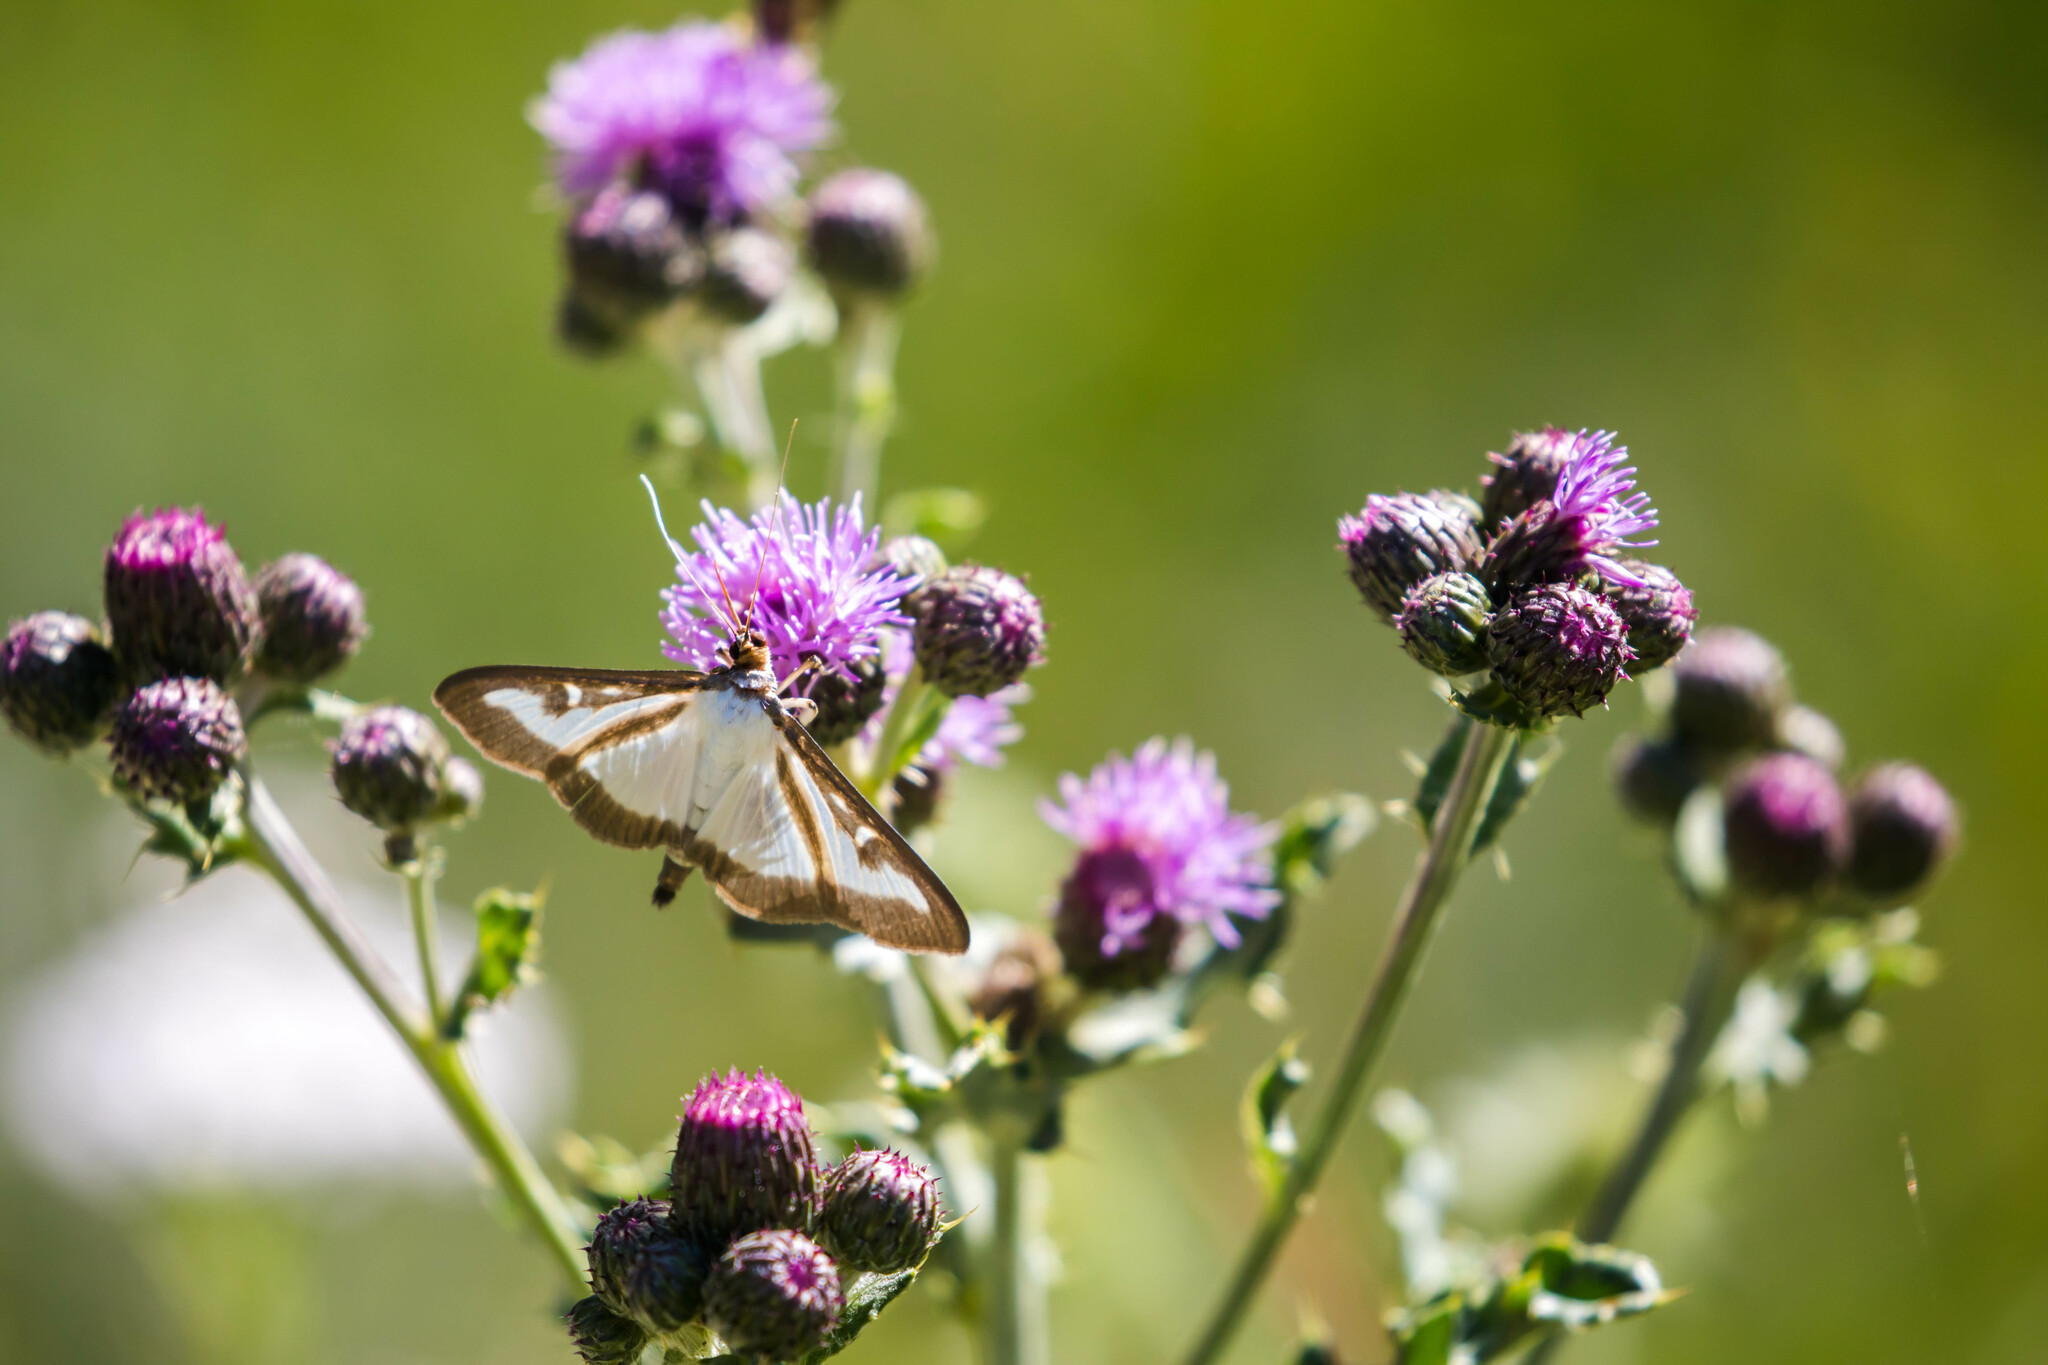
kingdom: Animalia
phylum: Arthropoda
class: Insecta
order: Lepidoptera
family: Crambidae
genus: Cydalima
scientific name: Cydalima perspectalis
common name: Box tree moth
